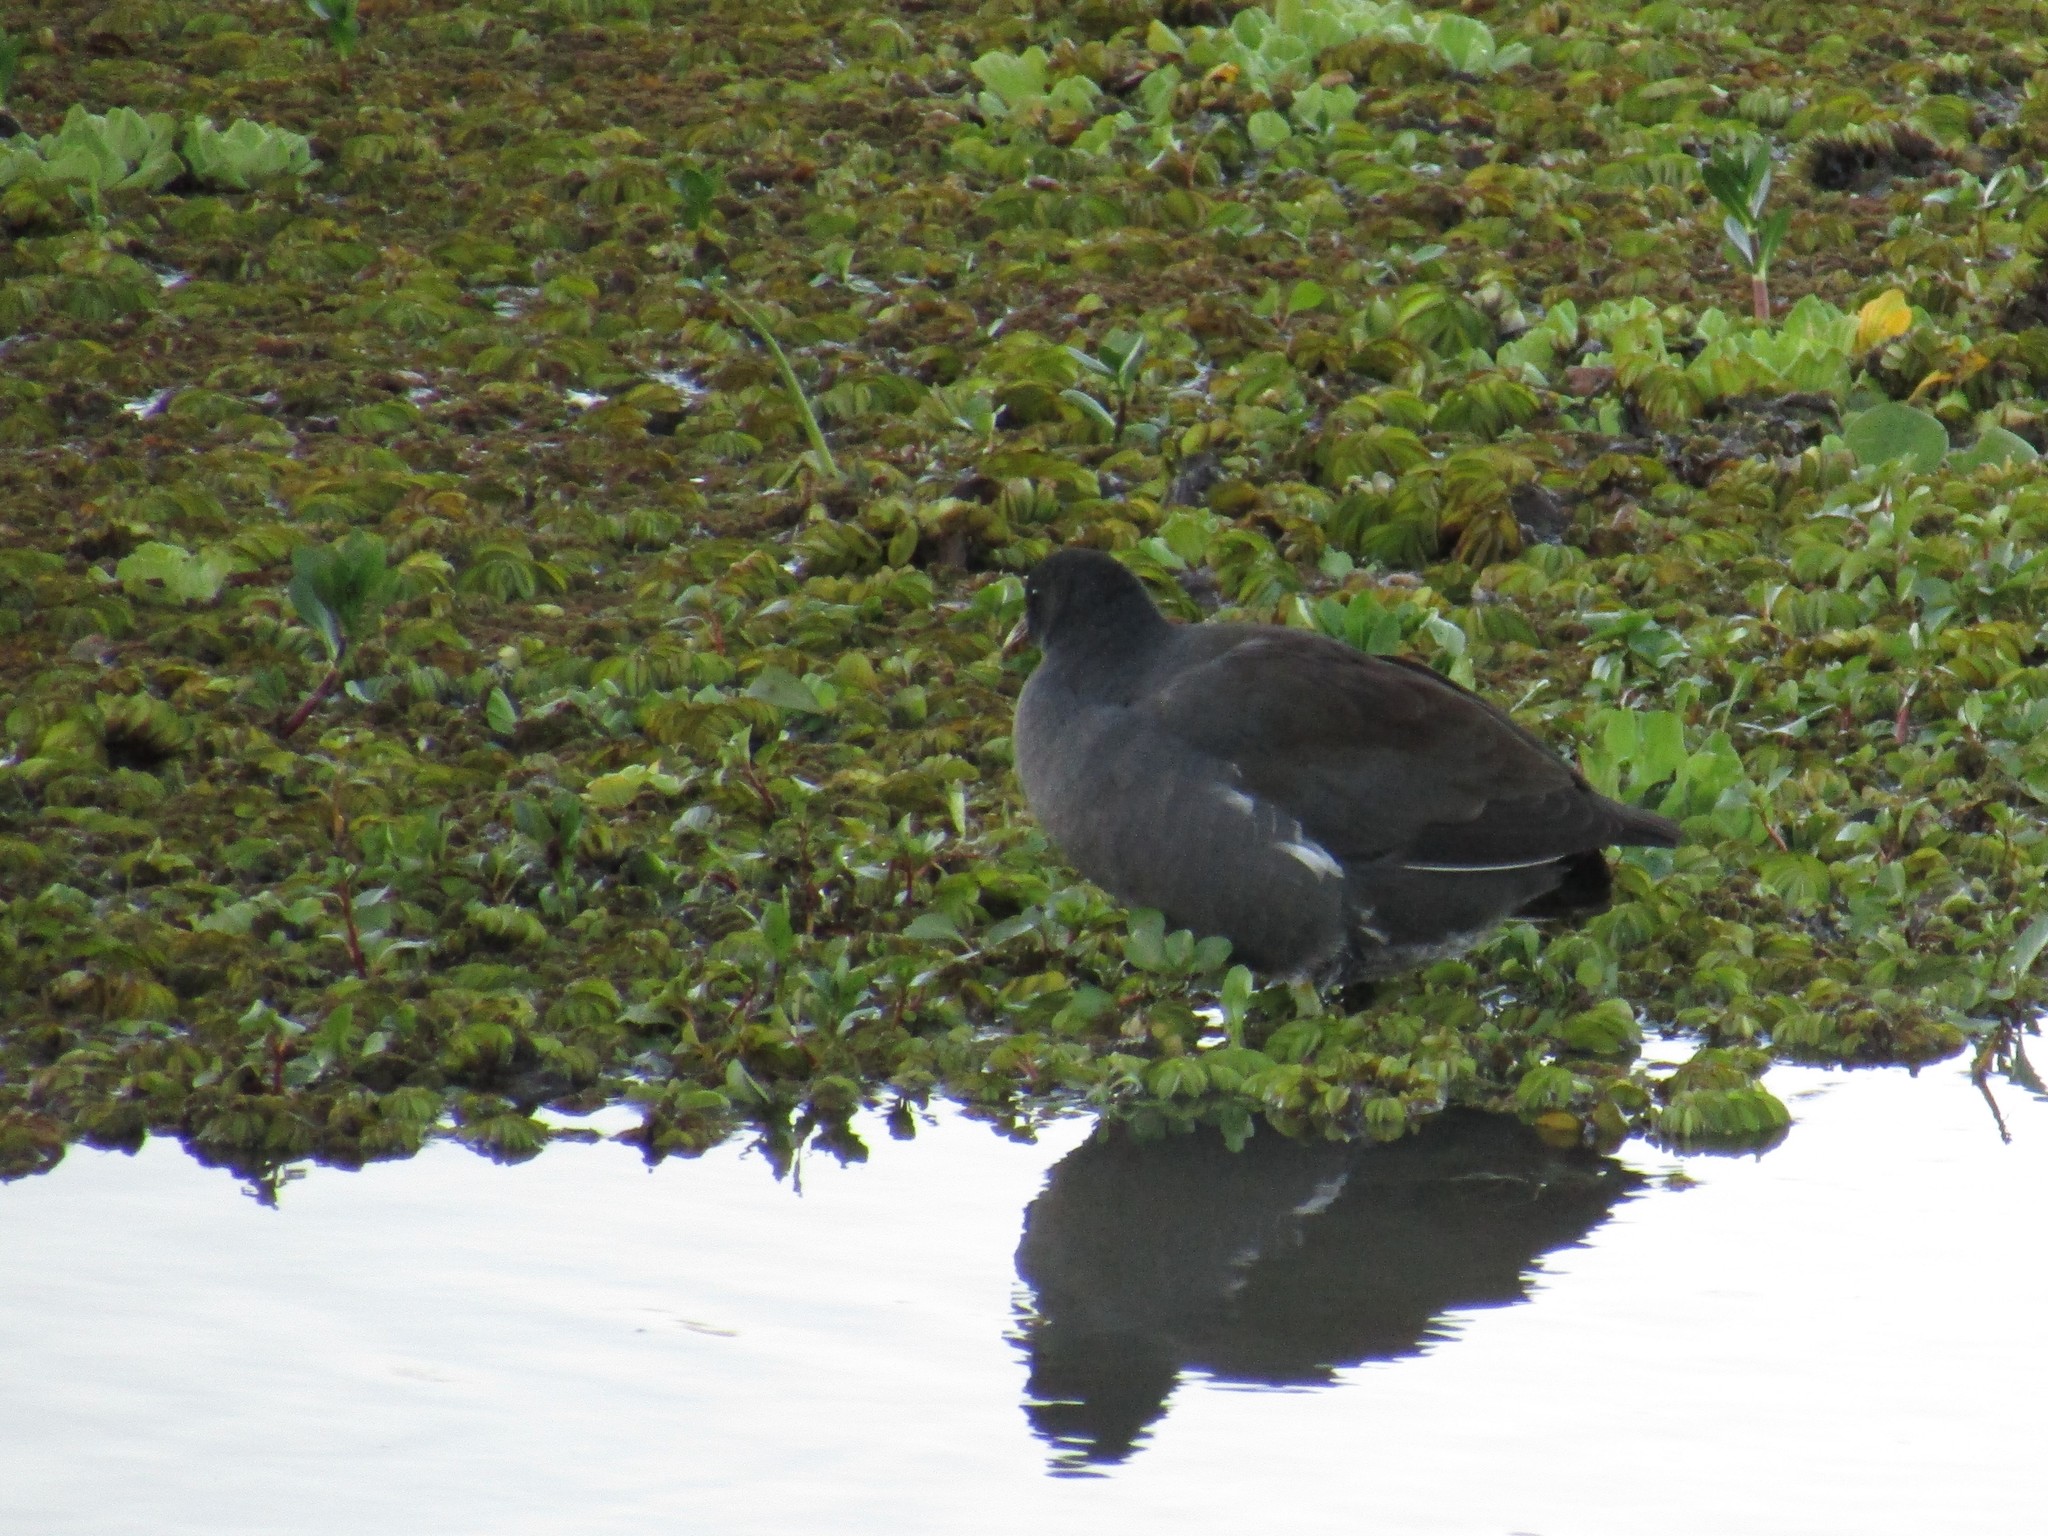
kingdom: Animalia
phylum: Chordata
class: Aves
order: Gruiformes
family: Rallidae
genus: Gallinula
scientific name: Gallinula chloropus
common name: Common moorhen
